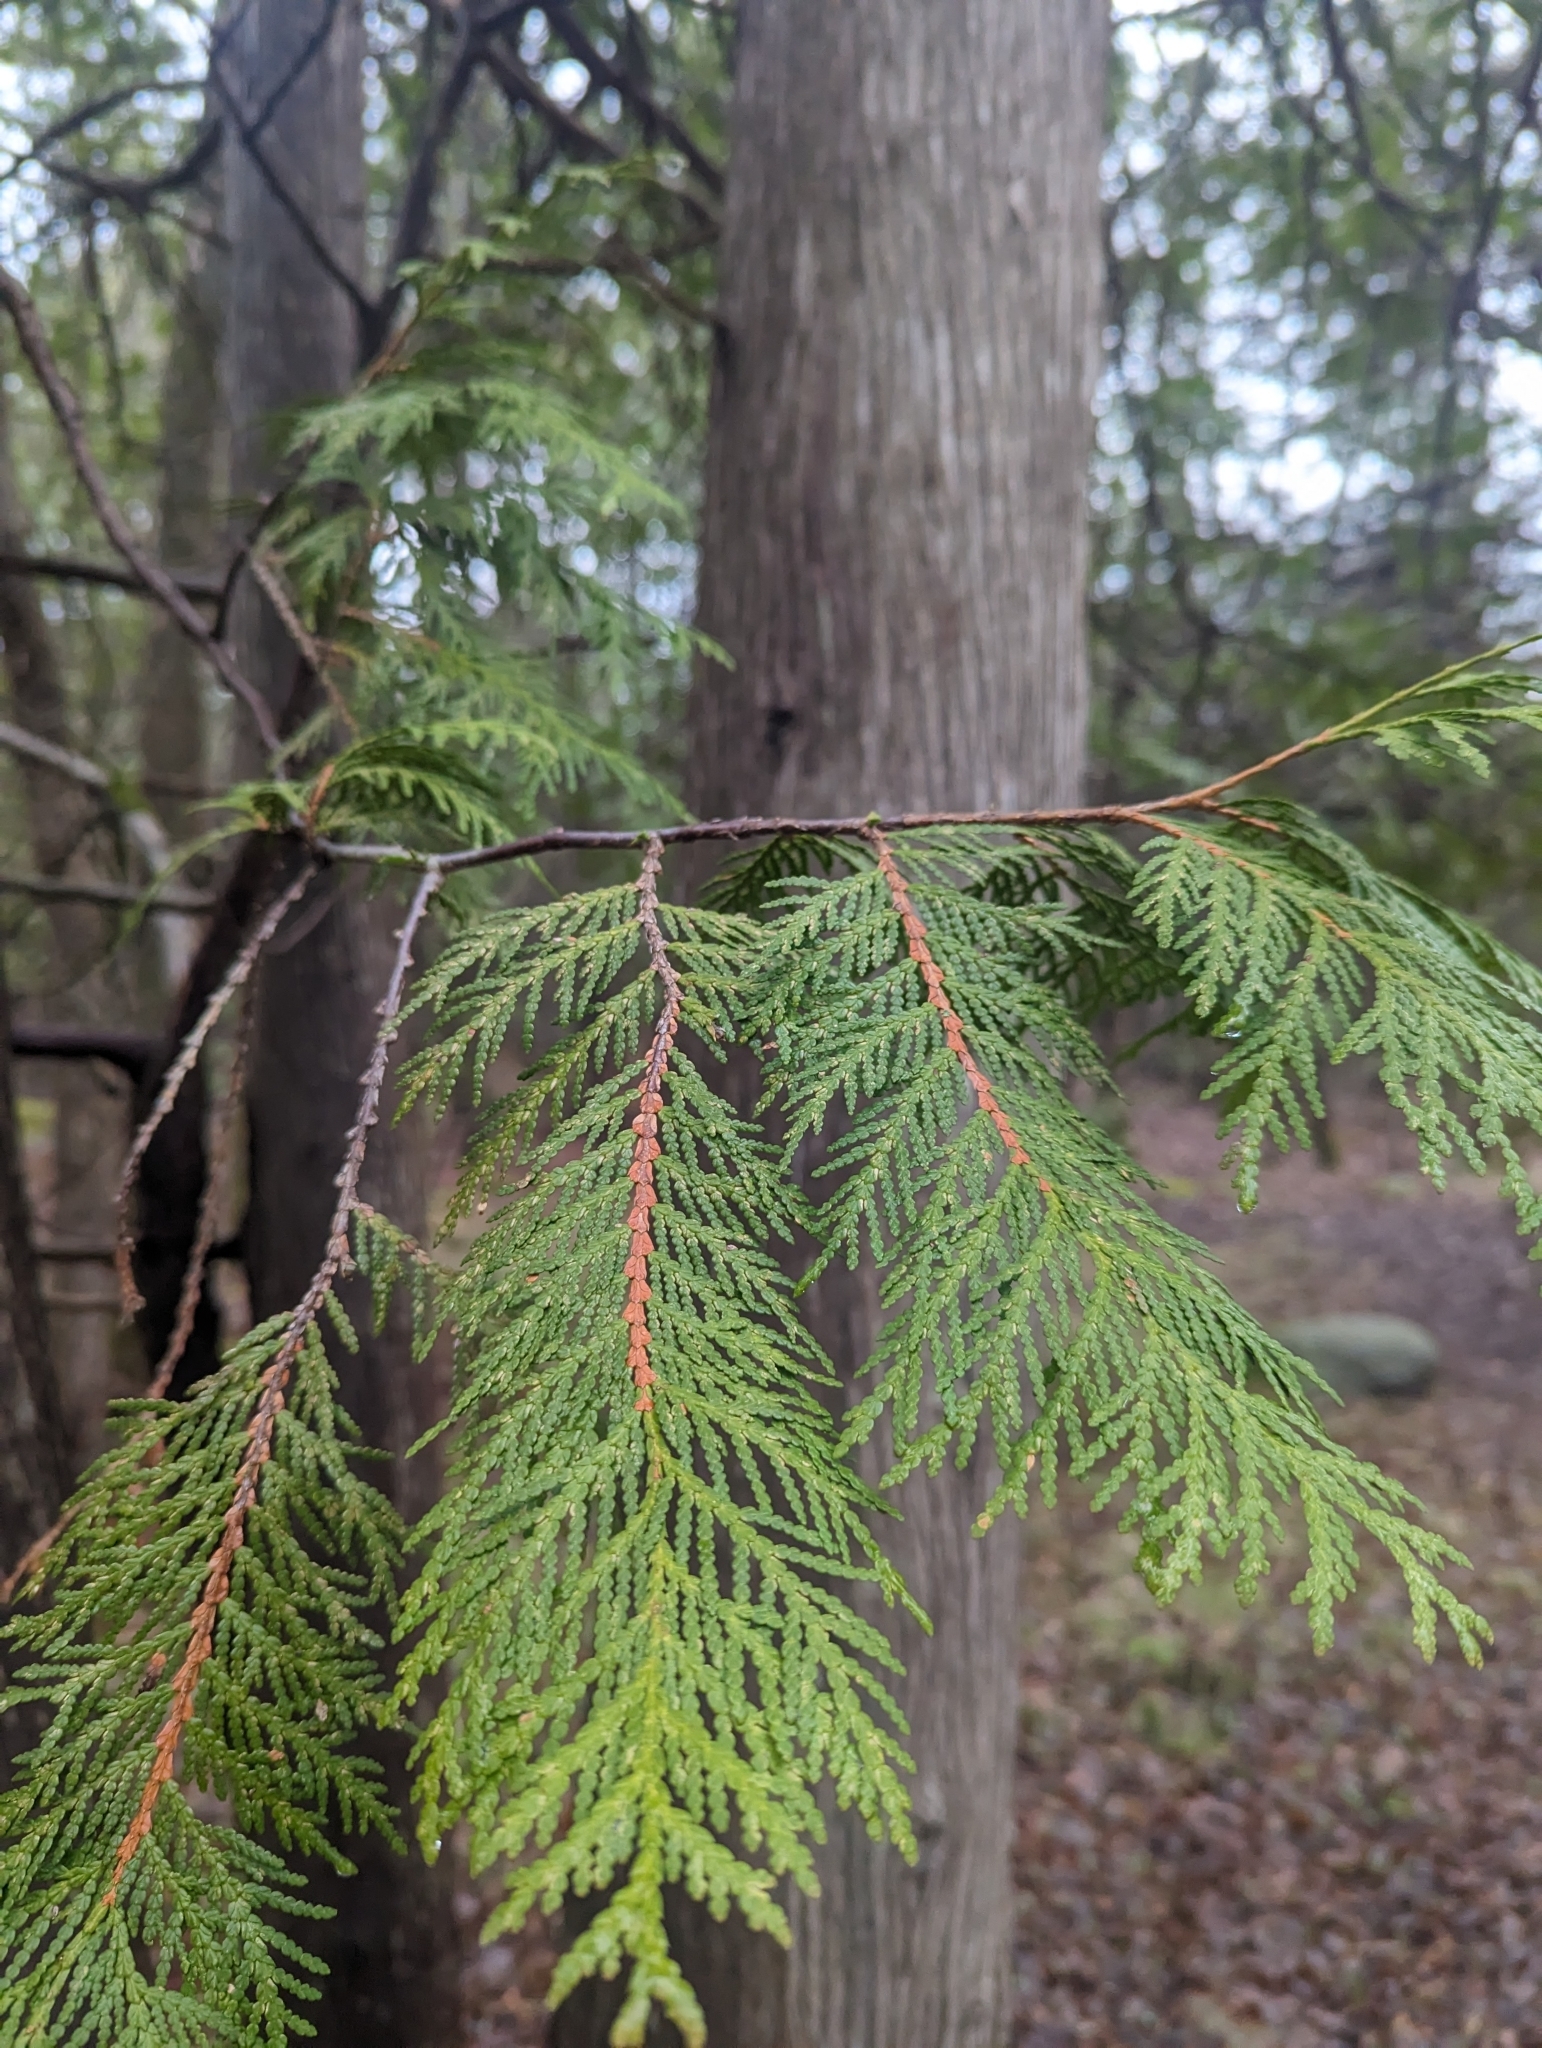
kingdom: Plantae
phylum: Tracheophyta
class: Pinopsida
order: Pinales
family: Cupressaceae
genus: Thuja
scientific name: Thuja occidentalis
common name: Northern white-cedar
